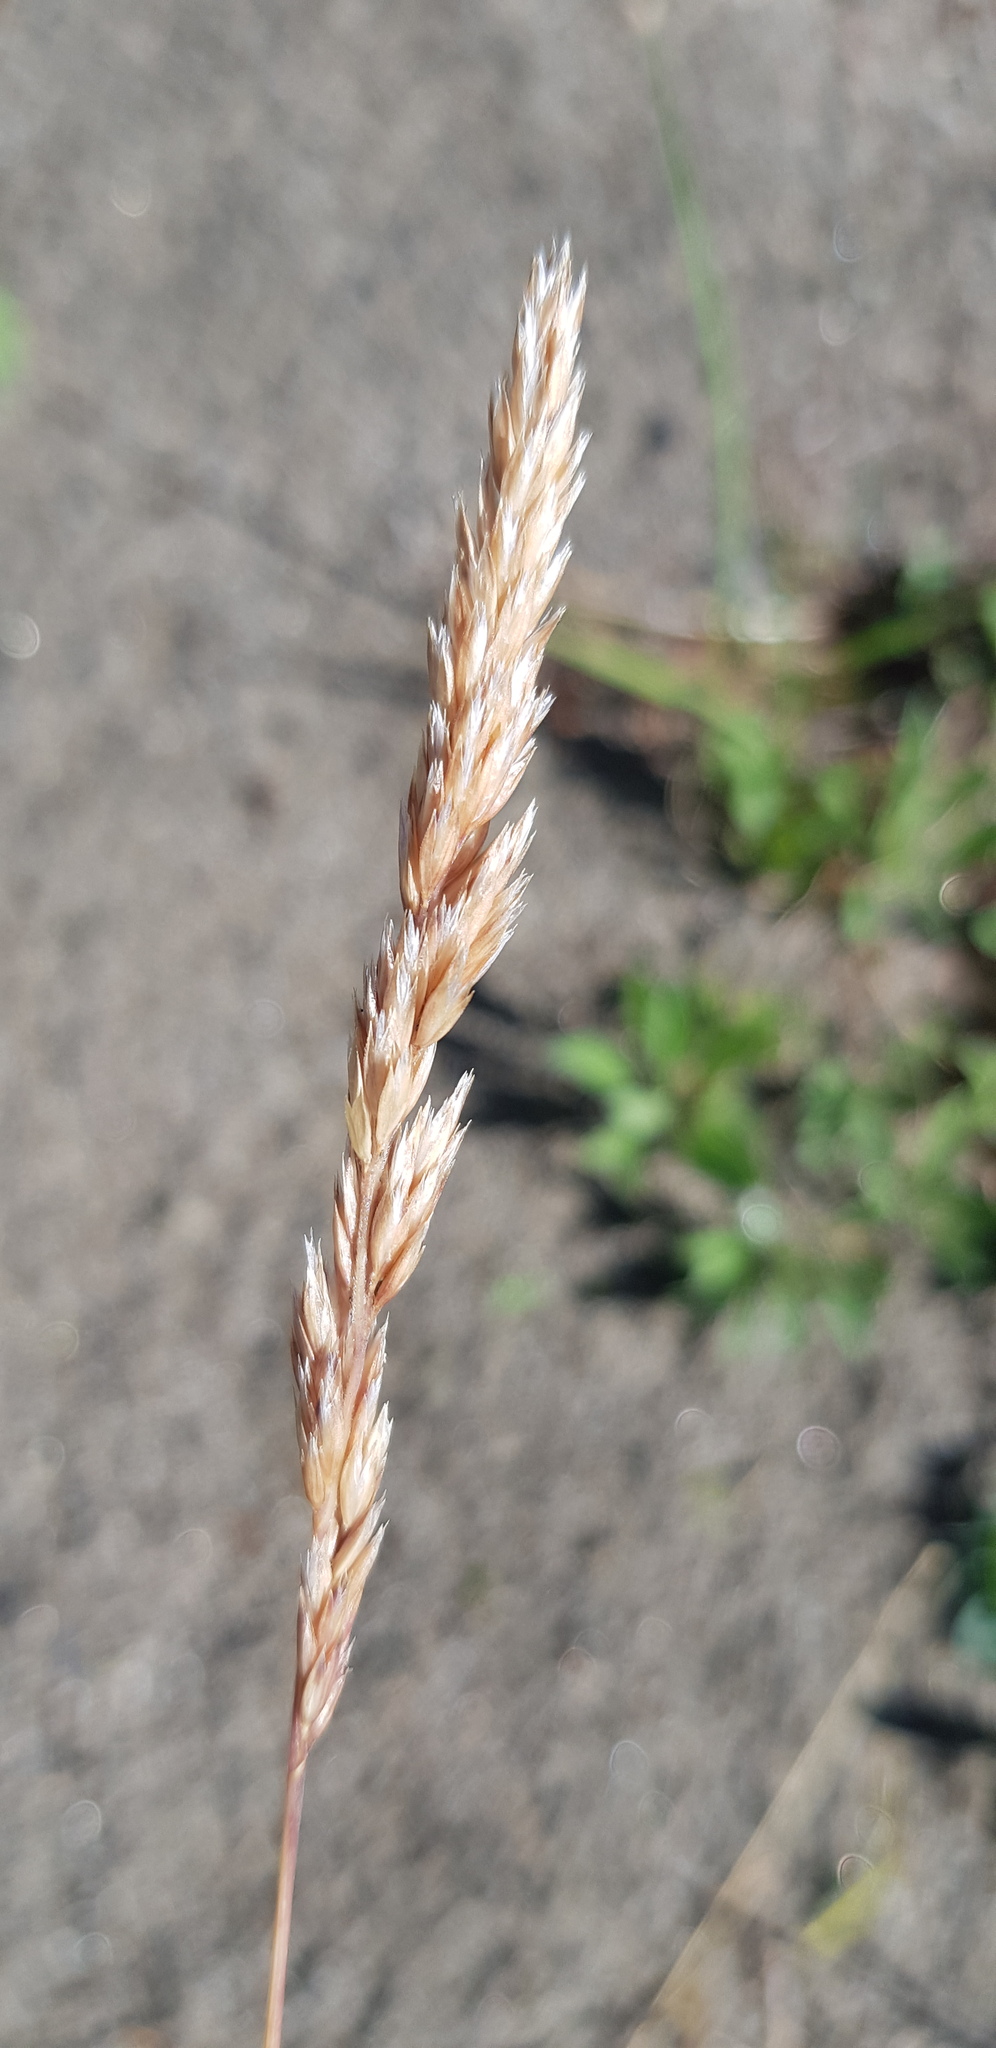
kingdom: Plantae
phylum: Tracheophyta
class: Liliopsida
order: Poales
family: Poaceae
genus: Elymus
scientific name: Elymus repens
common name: Quackgrass
